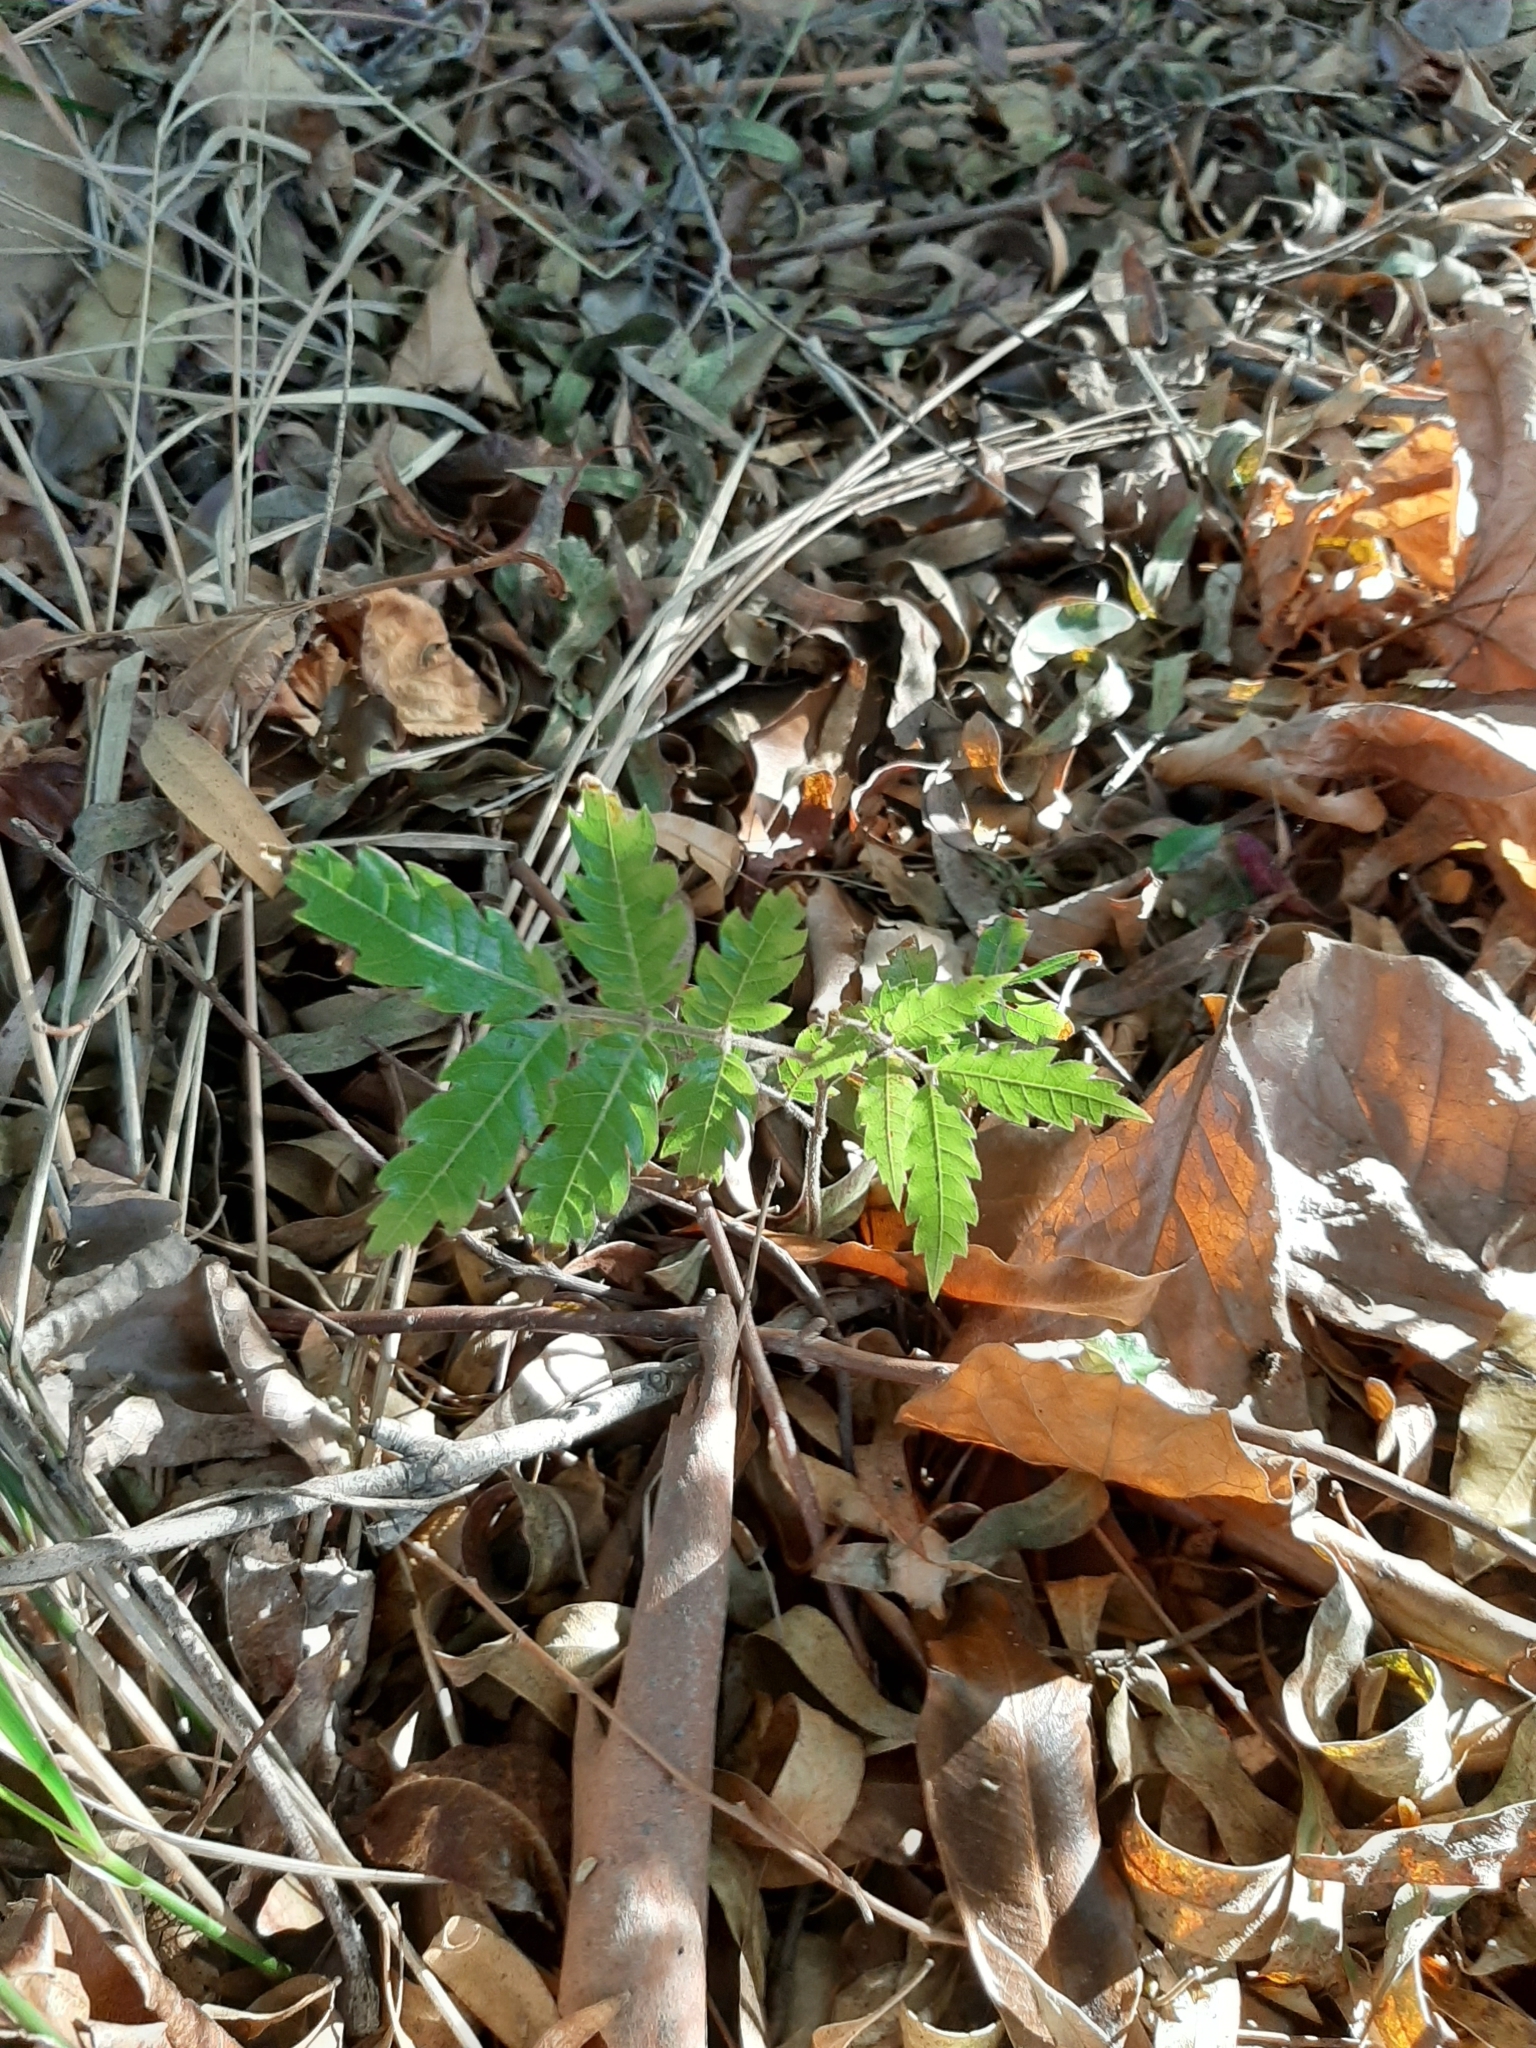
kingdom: Plantae
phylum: Tracheophyta
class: Magnoliopsida
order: Sapindales
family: Sapindaceae
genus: Alectryon
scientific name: Alectryon excelsus
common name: Three kings titoki
